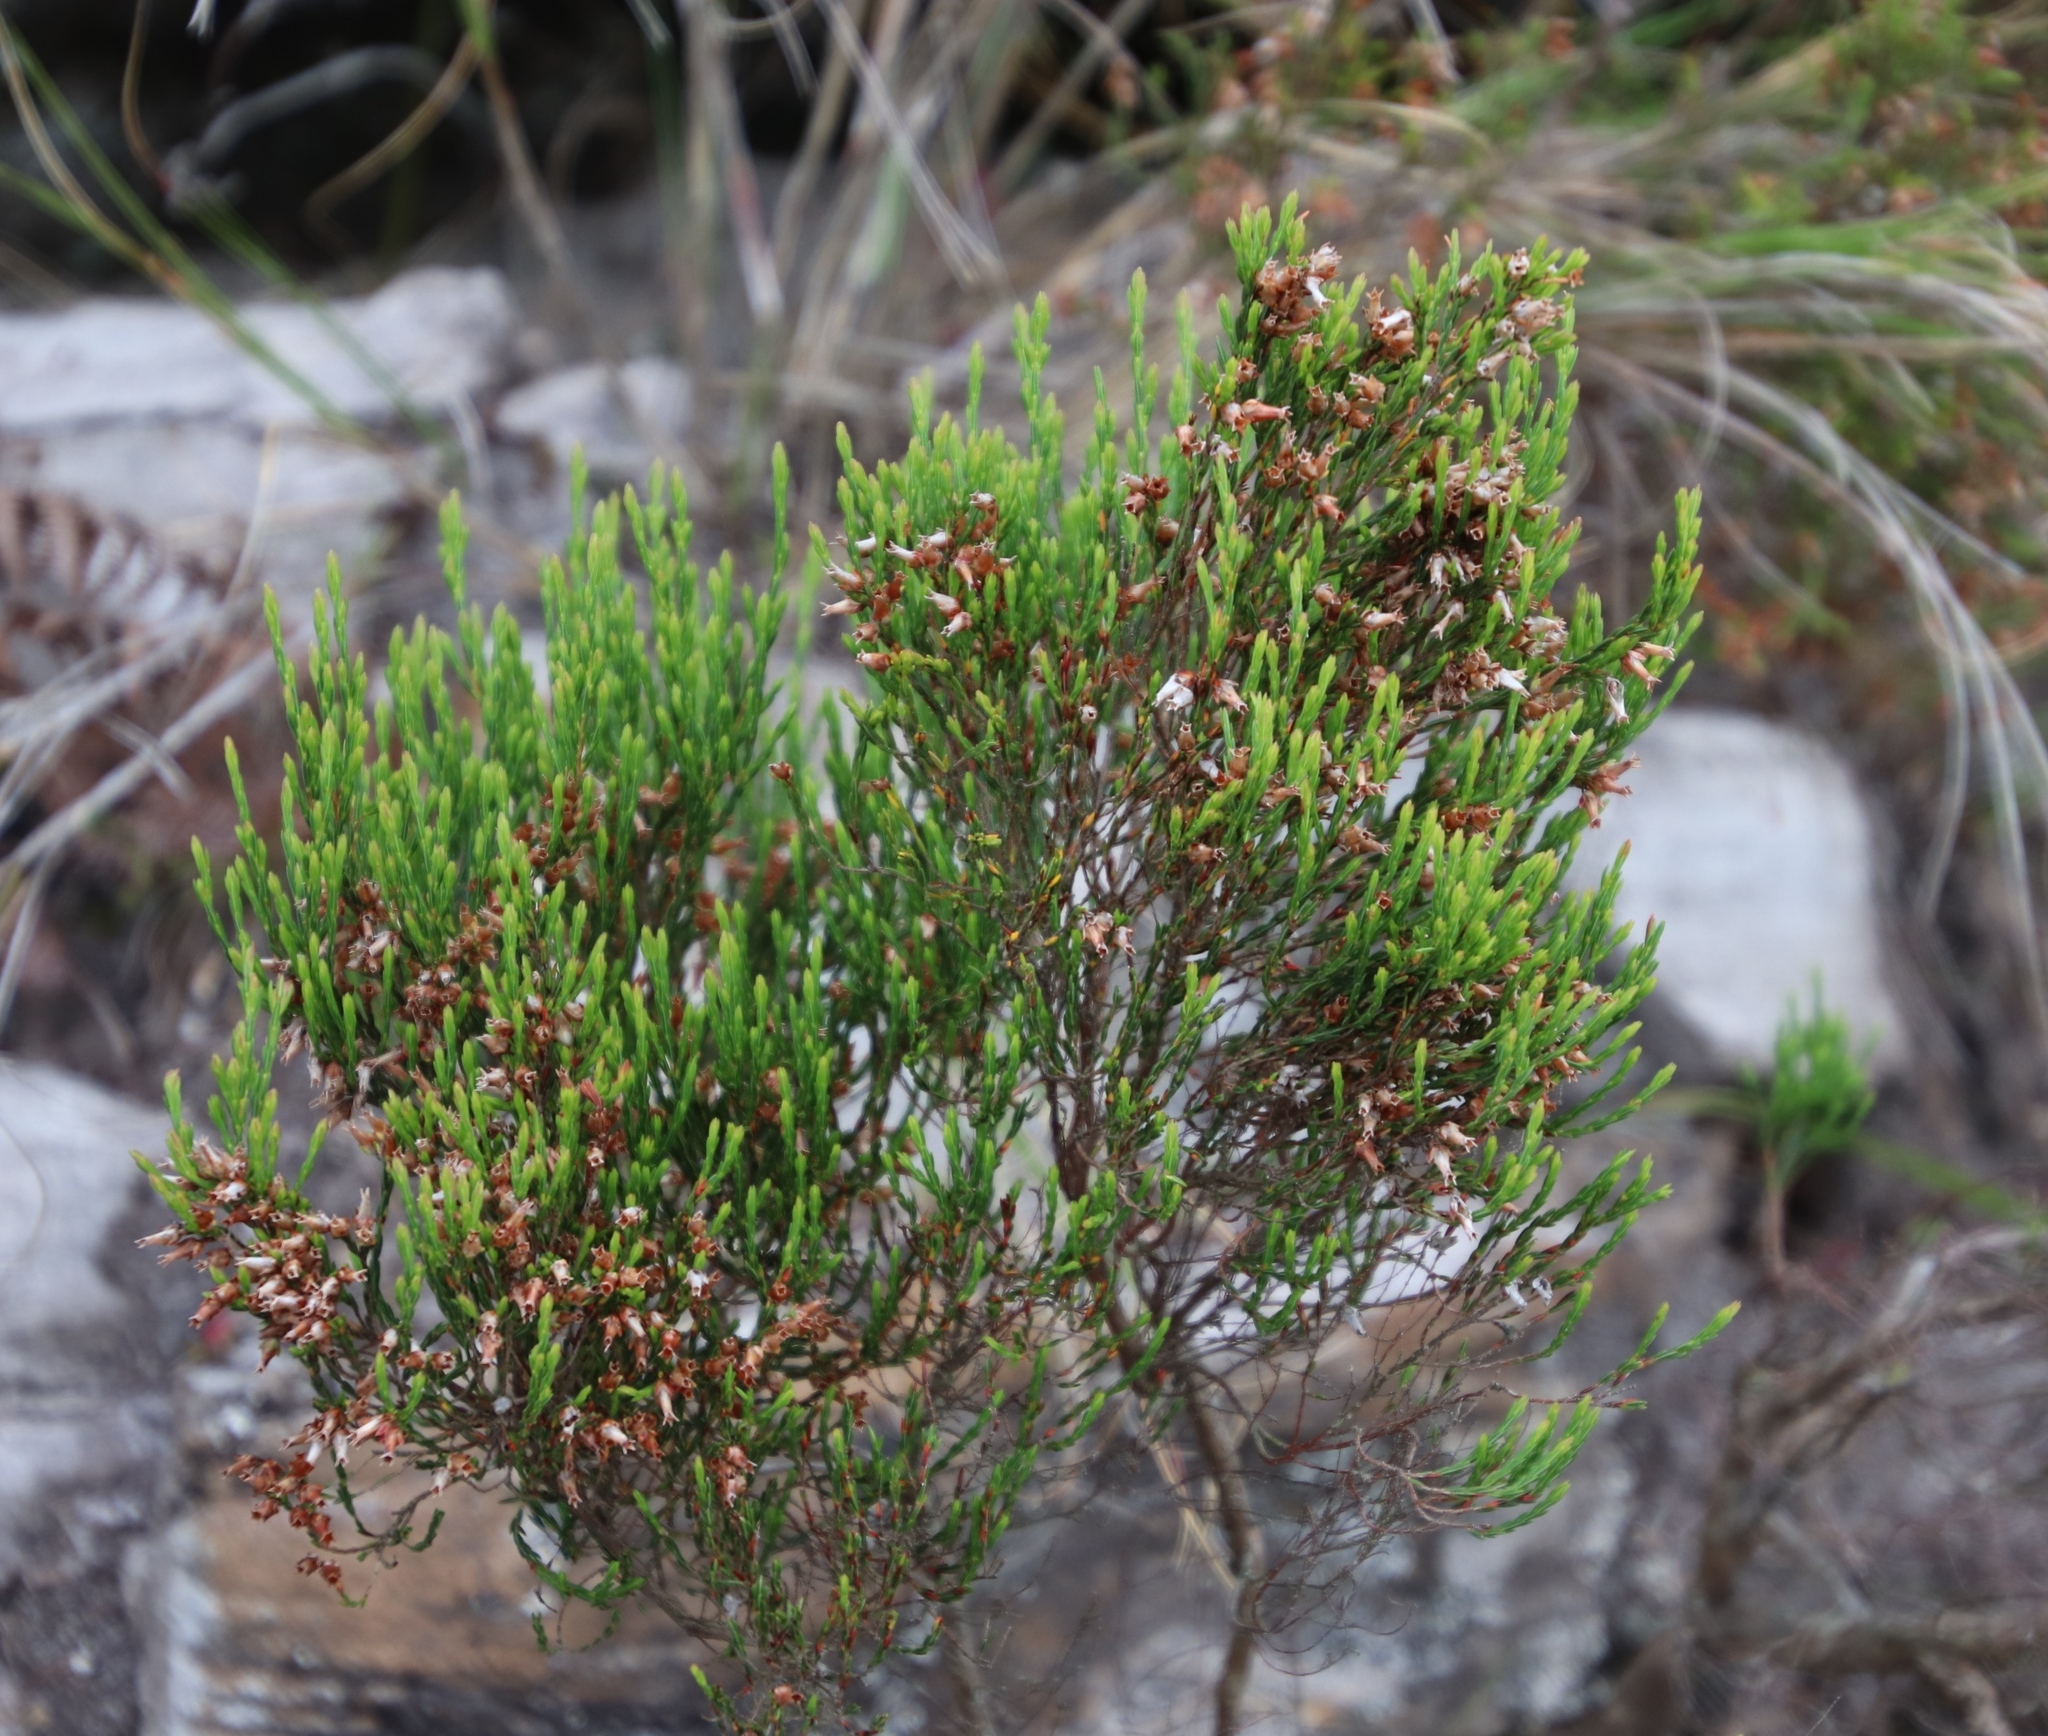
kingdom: Plantae
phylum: Tracheophyta
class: Magnoliopsida
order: Ericales
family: Ericaceae
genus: Erica
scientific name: Erica lutea
